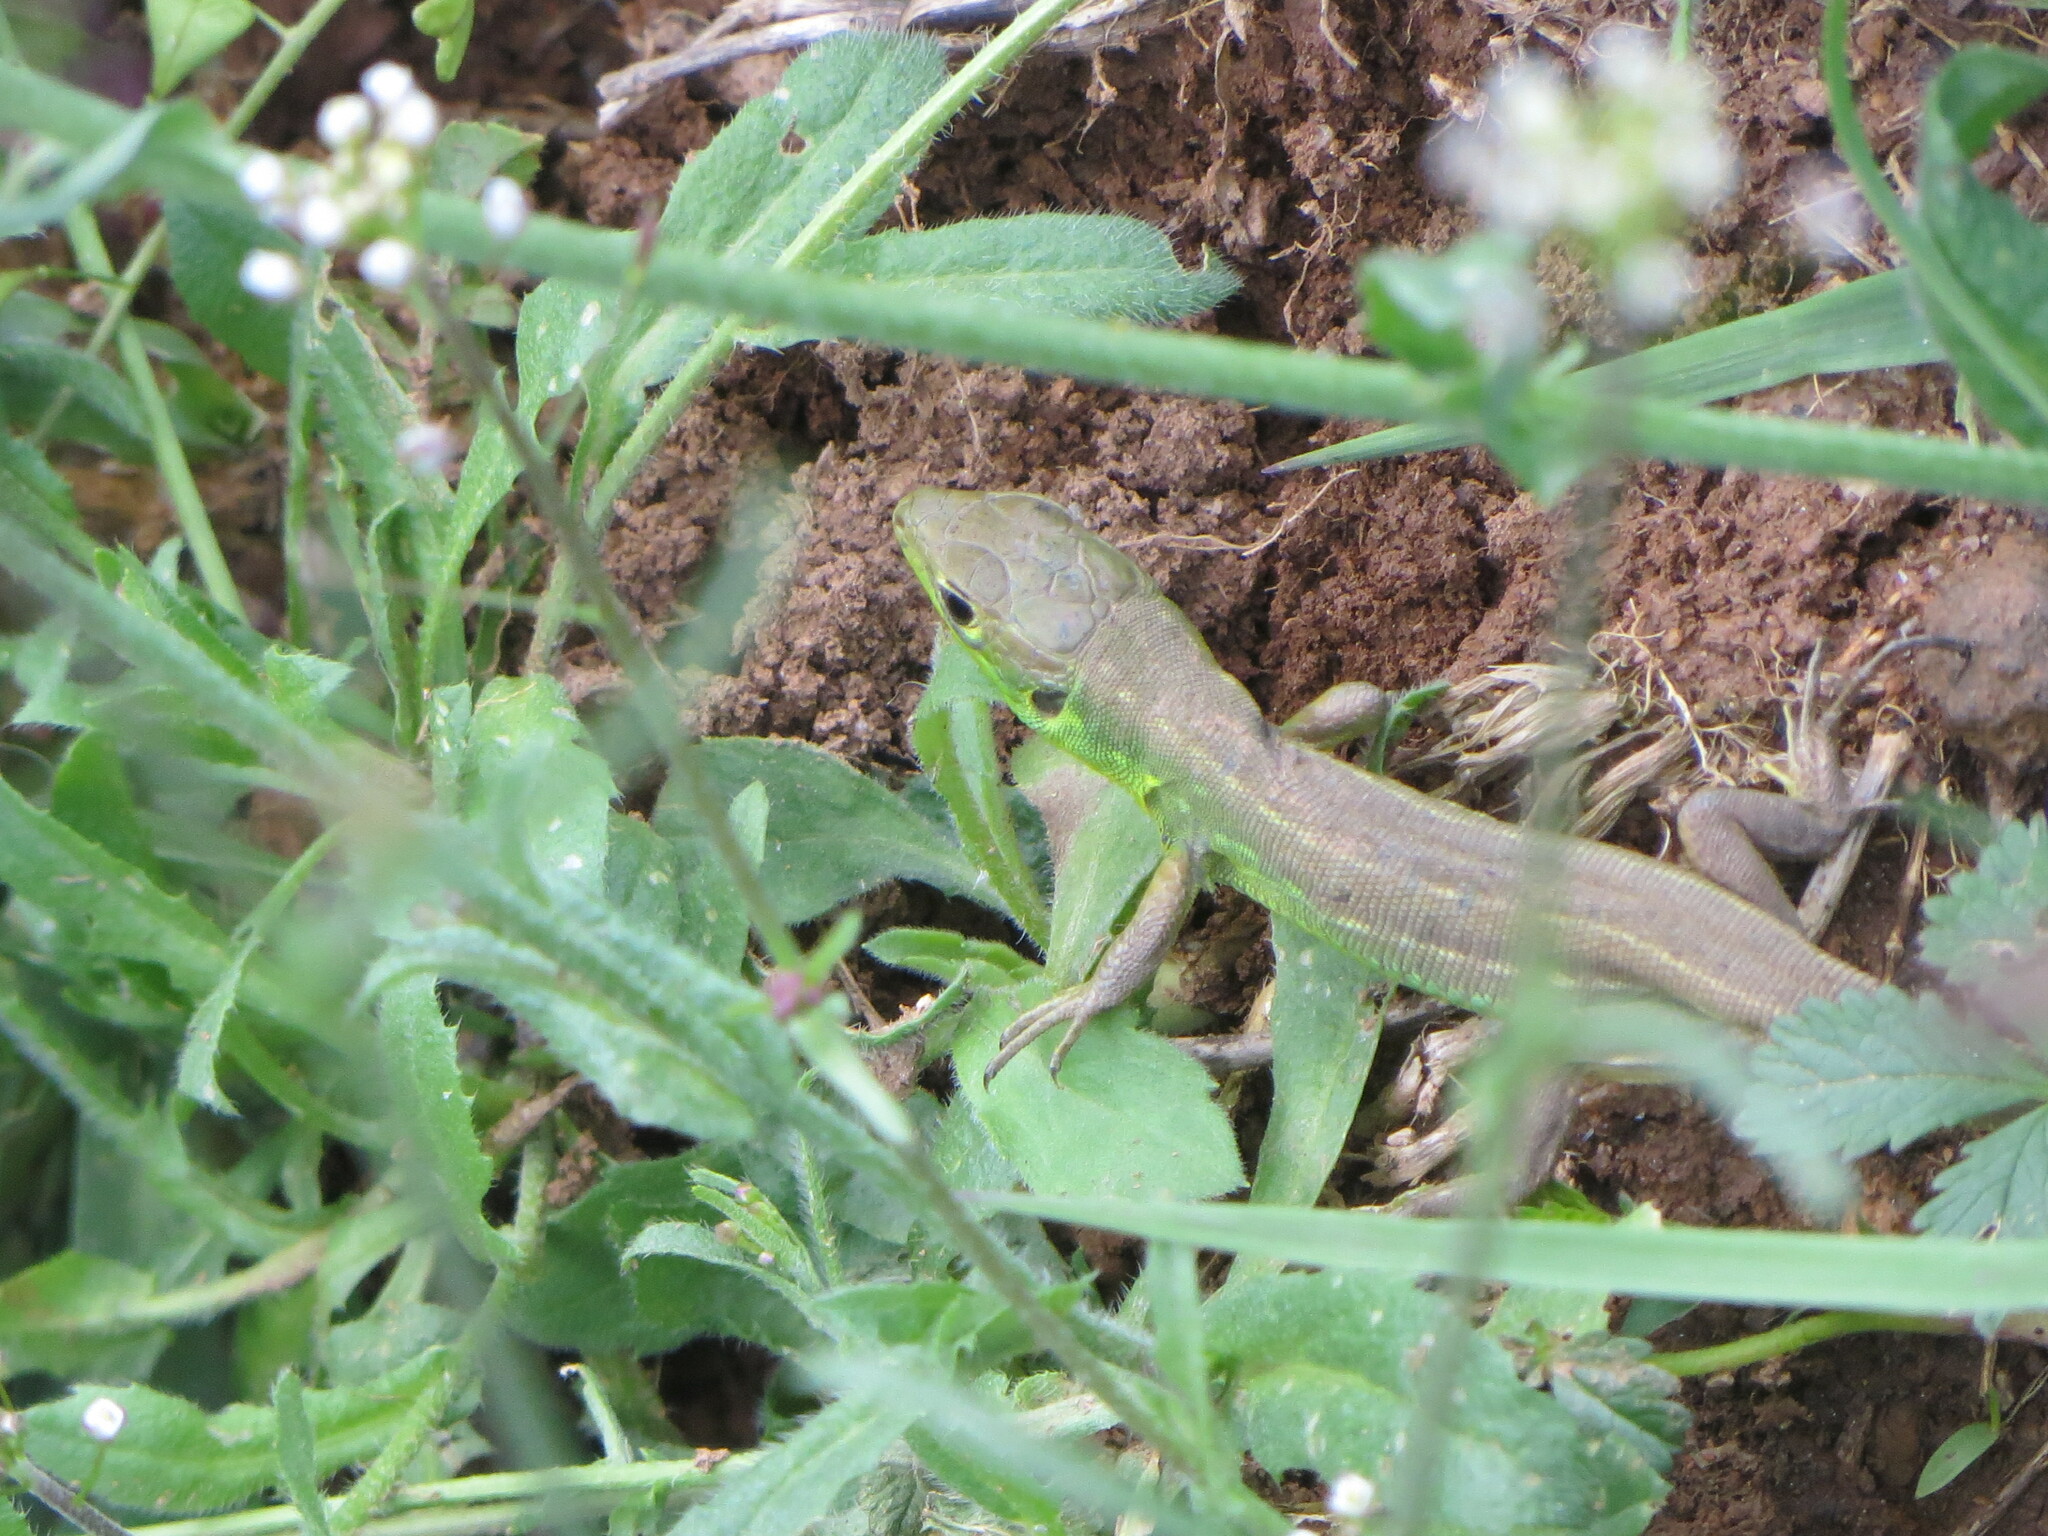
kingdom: Animalia
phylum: Chordata
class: Squamata
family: Lacertidae
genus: Lacerta
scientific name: Lacerta bilineata
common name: Western green lizard
